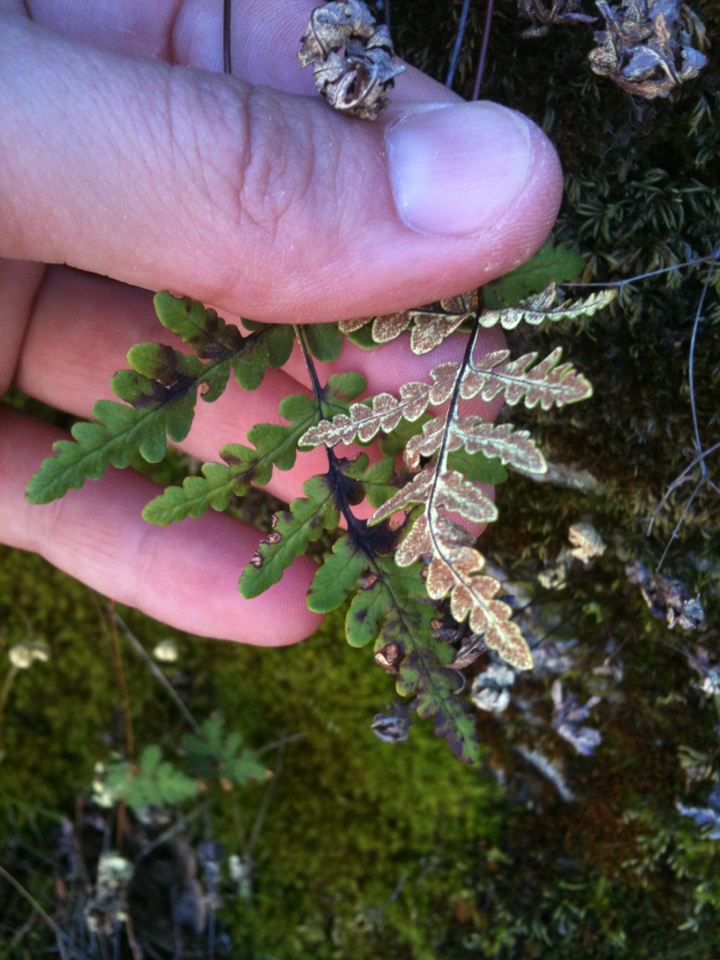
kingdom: Plantae
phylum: Tracheophyta
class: Polypodiopsida
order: Polypodiales
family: Pteridaceae
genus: Pentagramma
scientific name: Pentagramma triangularis
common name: Gold fern
